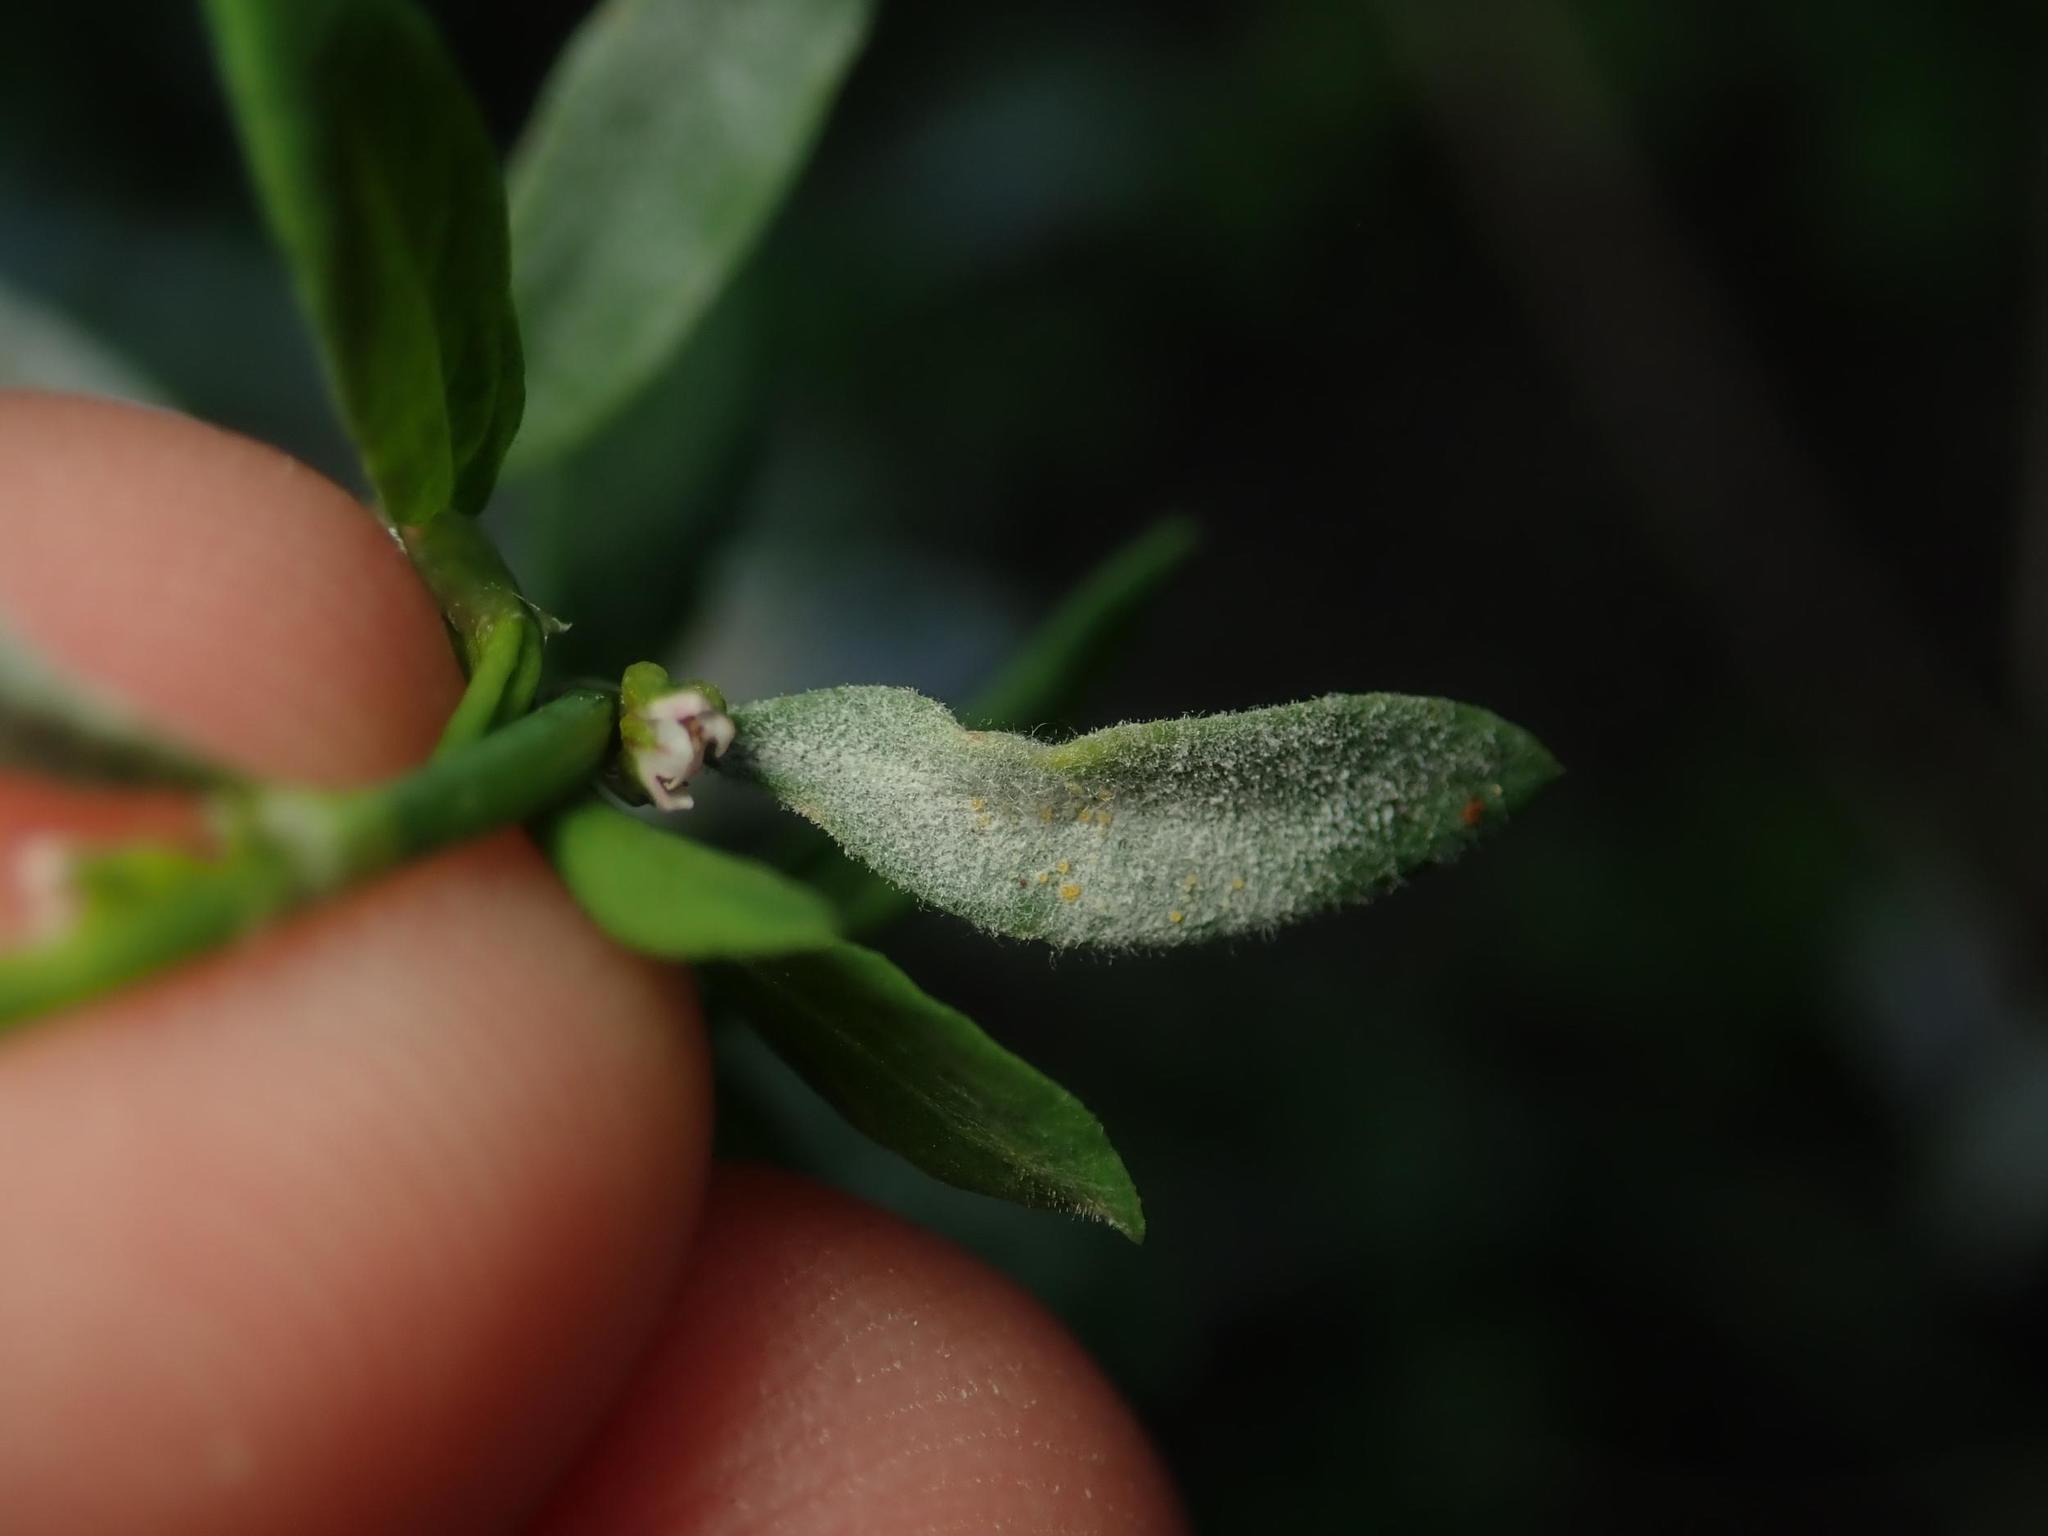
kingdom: Fungi
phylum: Ascomycota
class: Leotiomycetes
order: Helotiales
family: Erysiphaceae
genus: Erysiphe
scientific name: Erysiphe polygoni
